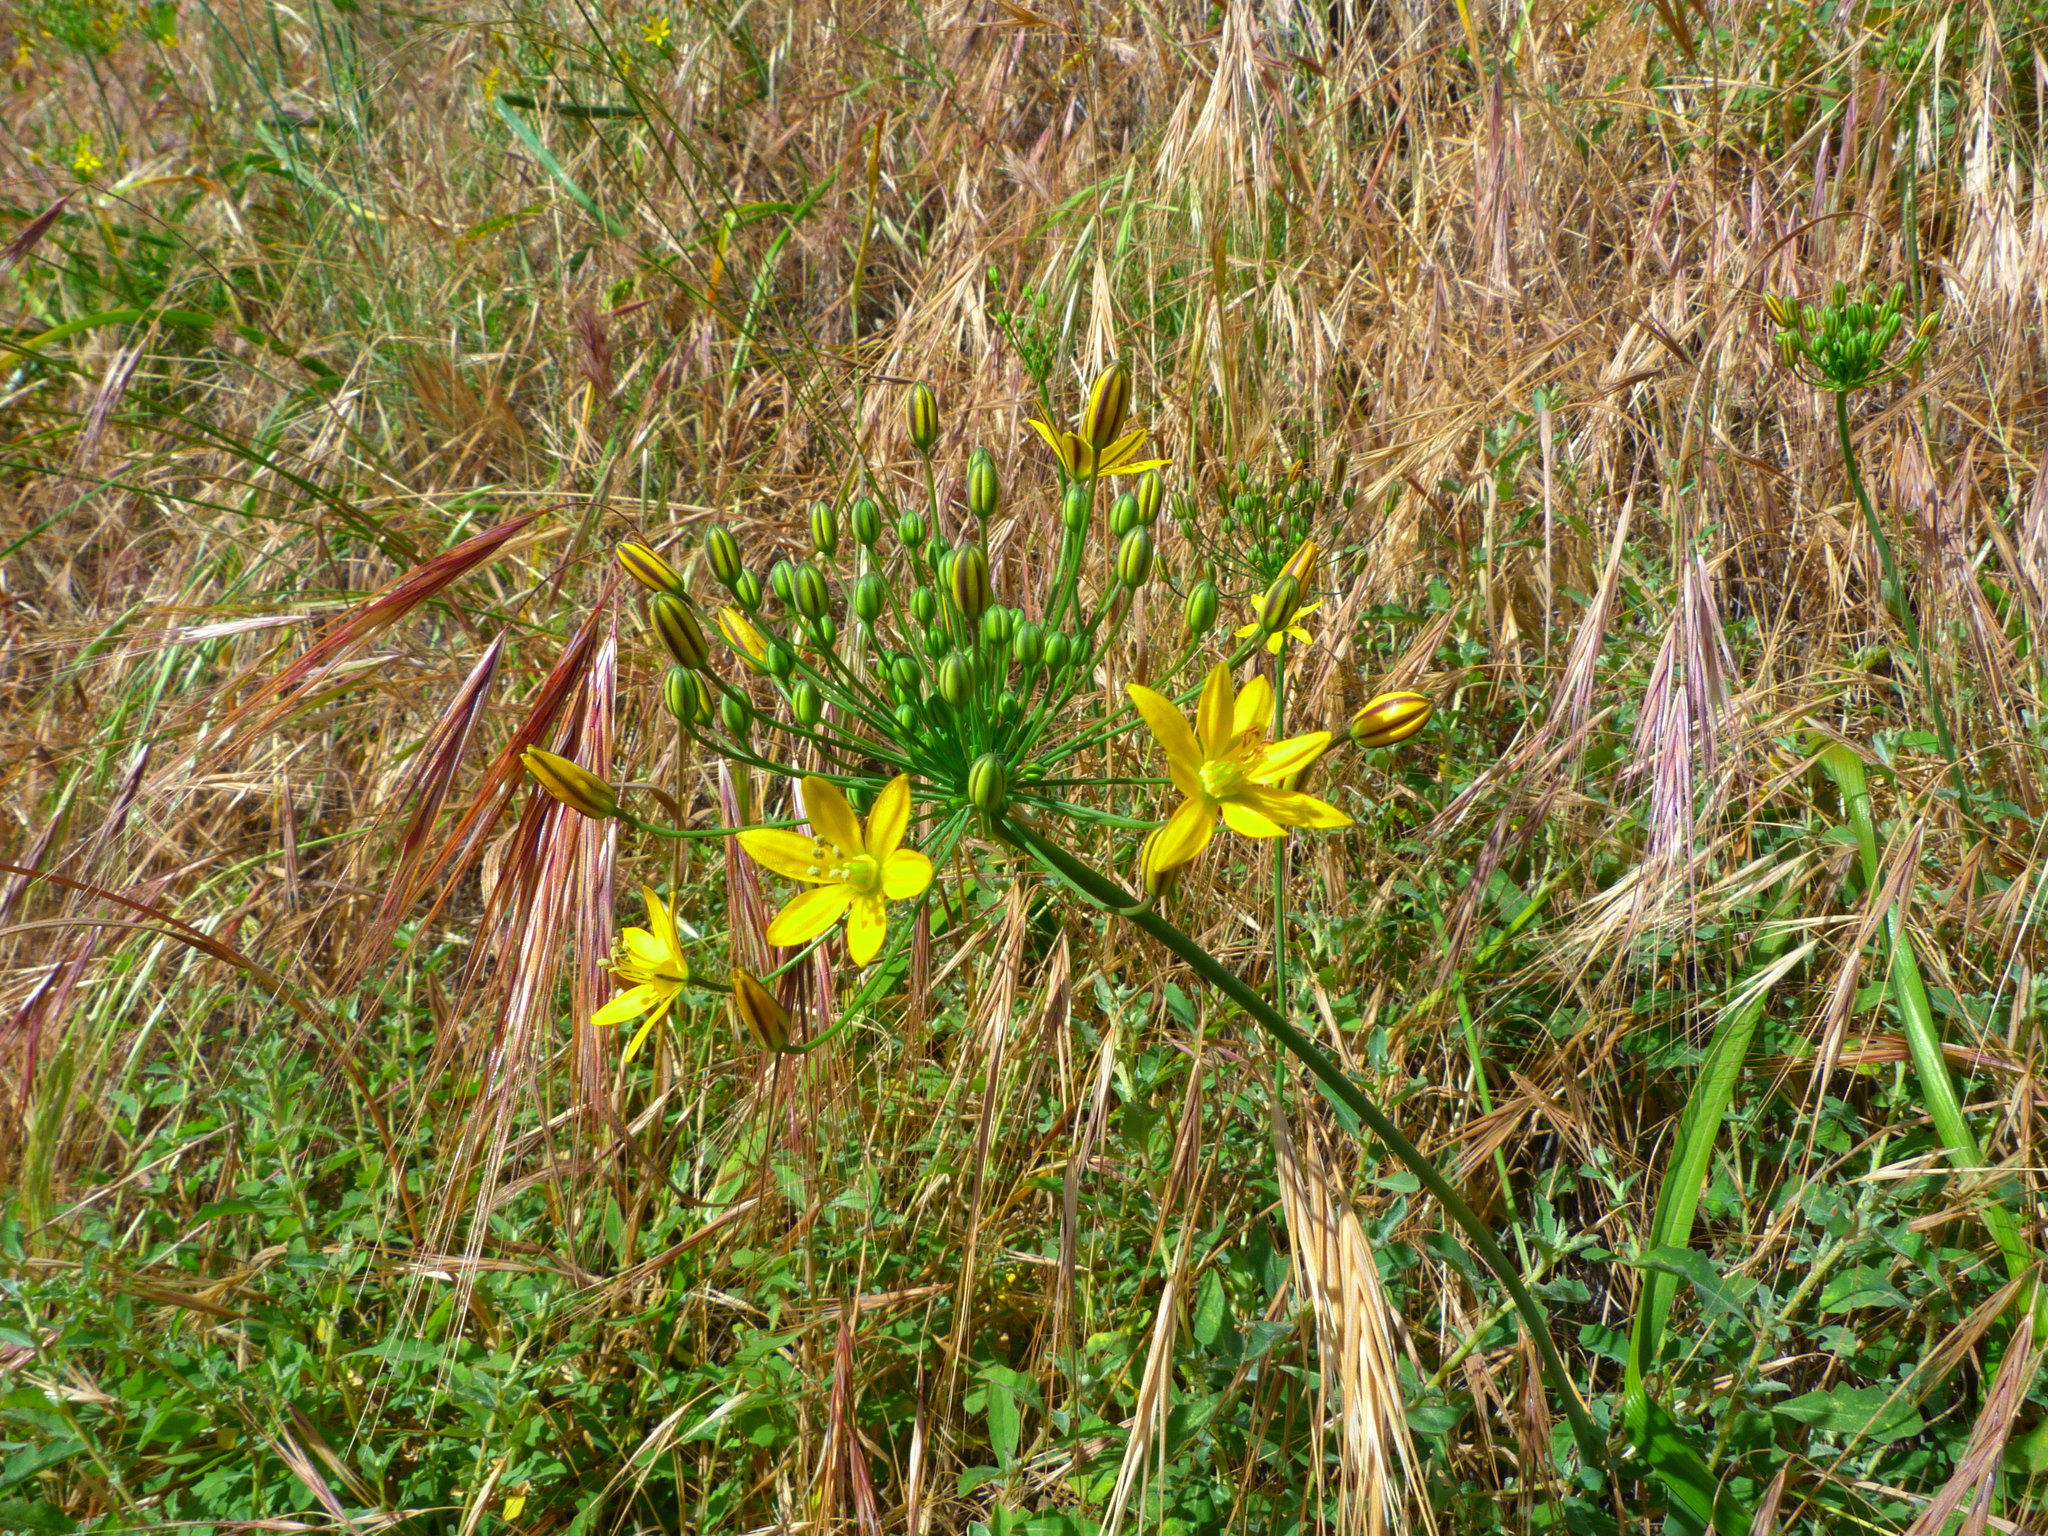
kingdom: Plantae
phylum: Tracheophyta
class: Liliopsida
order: Asparagales
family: Asparagaceae
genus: Bloomeria
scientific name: Bloomeria crocea
